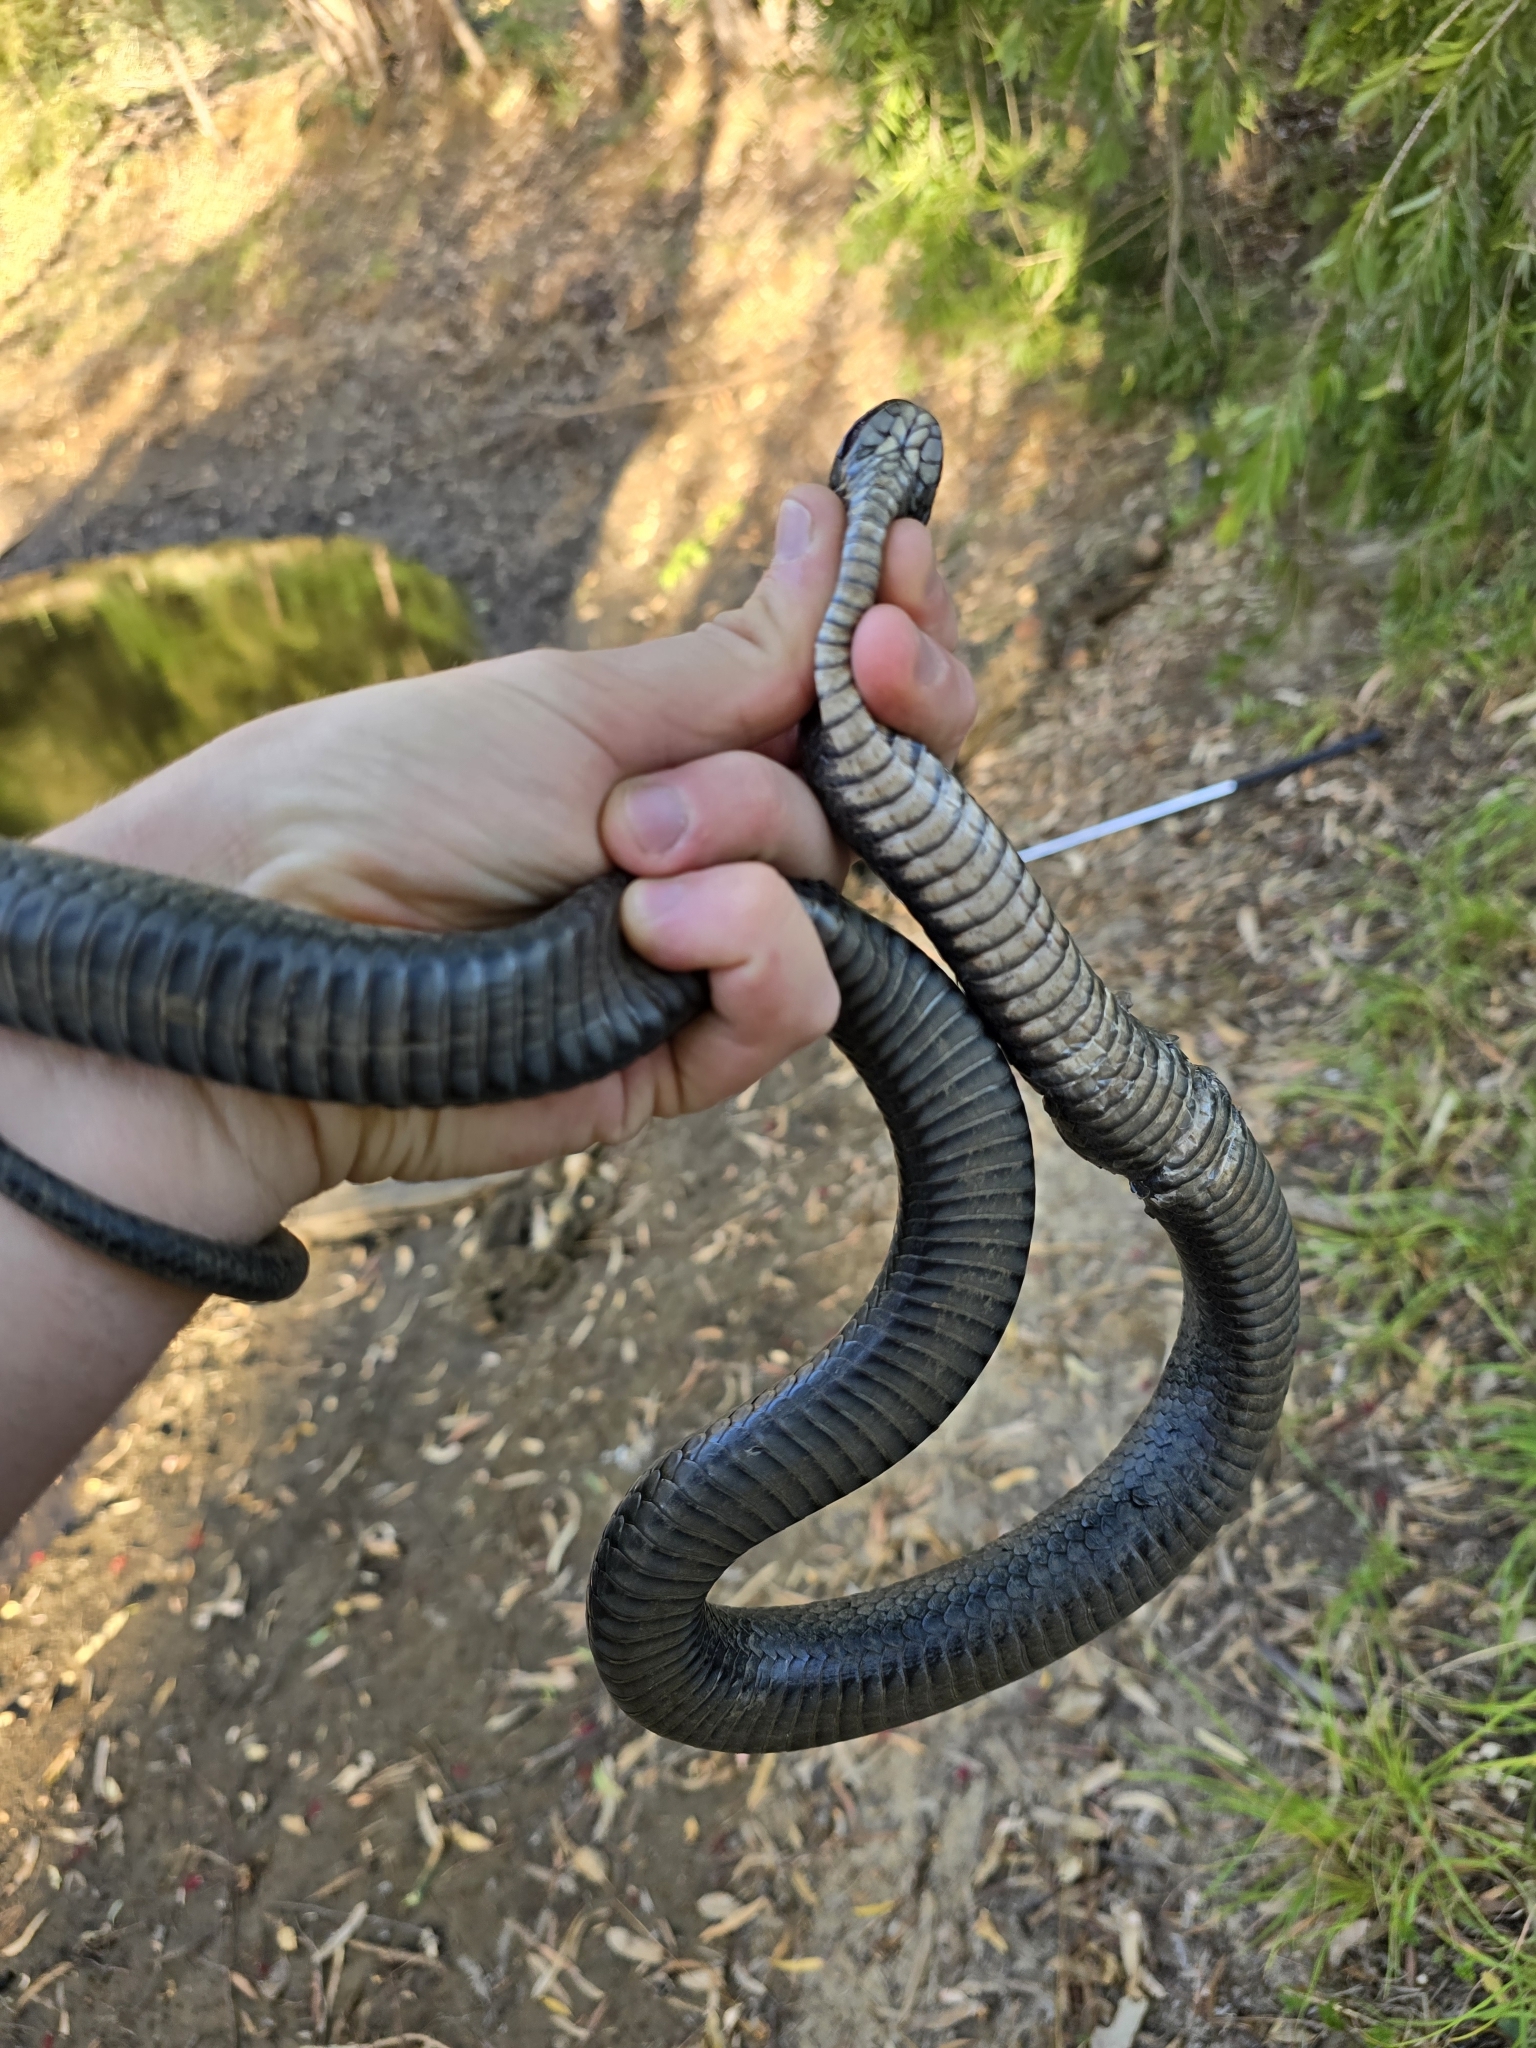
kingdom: Animalia
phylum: Chordata
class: Squamata
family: Elapidae
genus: Pseudechis
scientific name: Pseudechis porphyriacus
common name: Australian black snake
